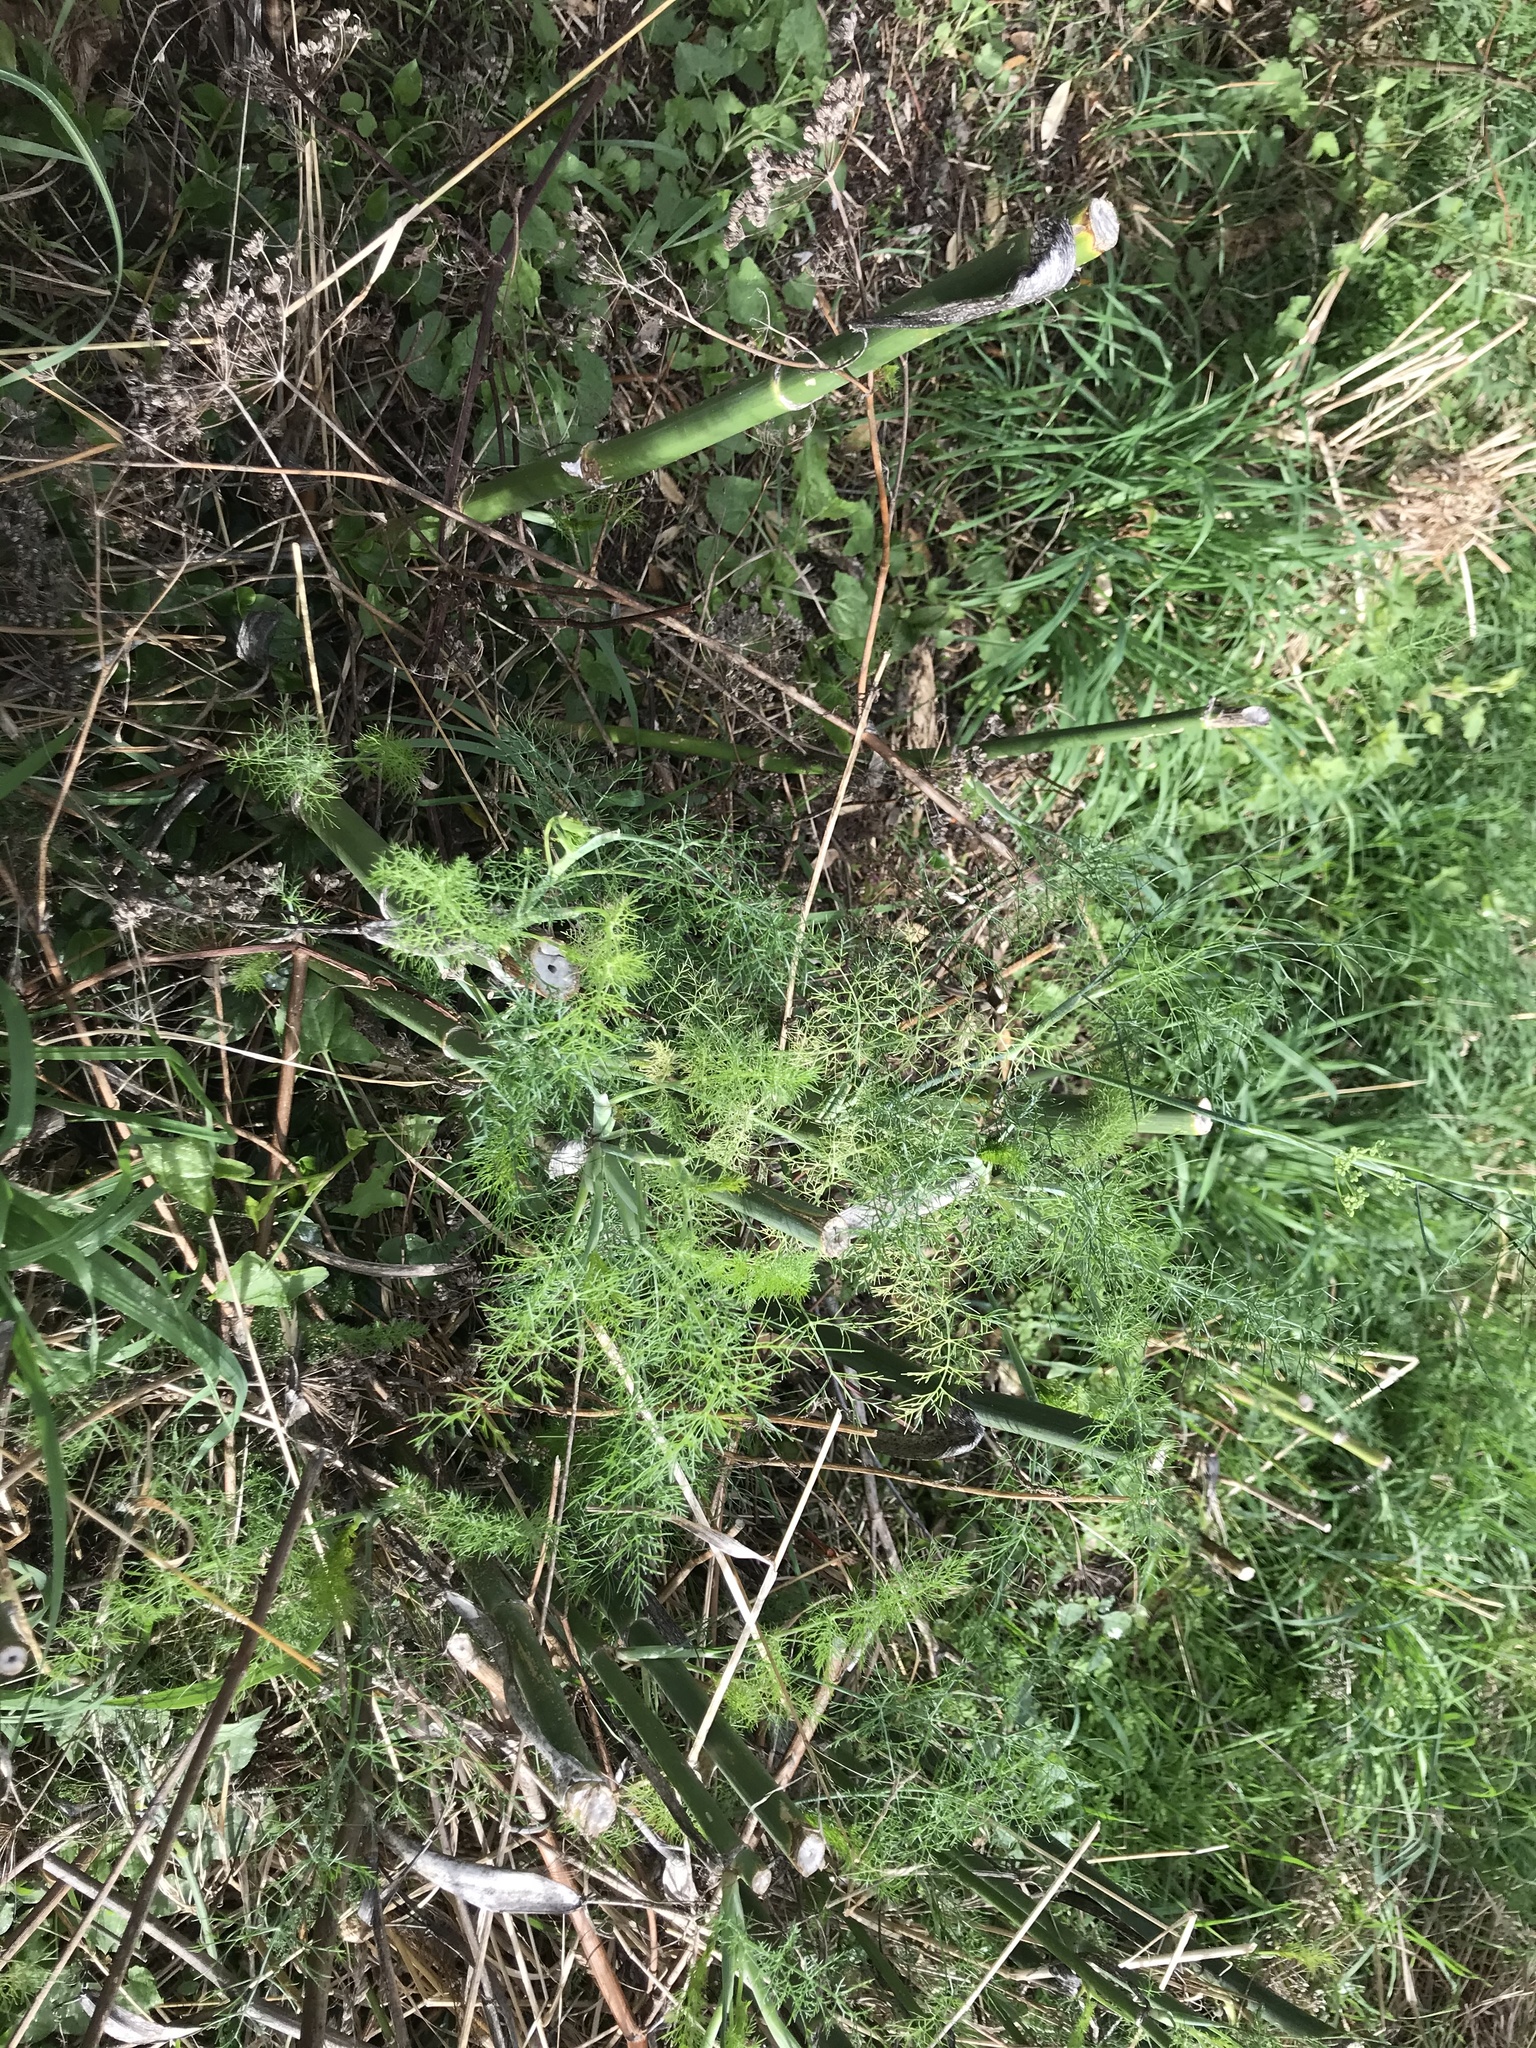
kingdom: Plantae
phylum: Tracheophyta
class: Magnoliopsida
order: Apiales
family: Apiaceae
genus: Foeniculum
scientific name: Foeniculum vulgare
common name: Fennel
